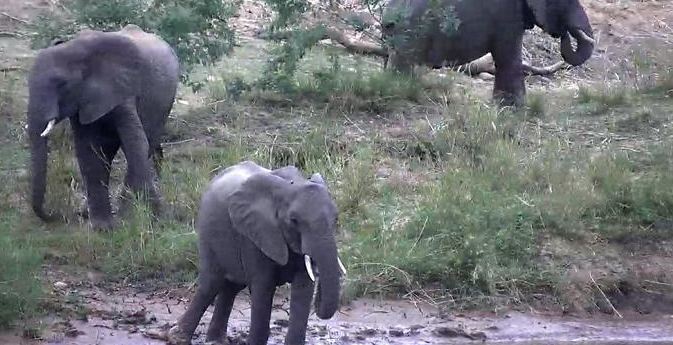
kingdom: Animalia
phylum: Chordata
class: Mammalia
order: Proboscidea
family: Elephantidae
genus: Loxodonta
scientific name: Loxodonta africana
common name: African elephant
